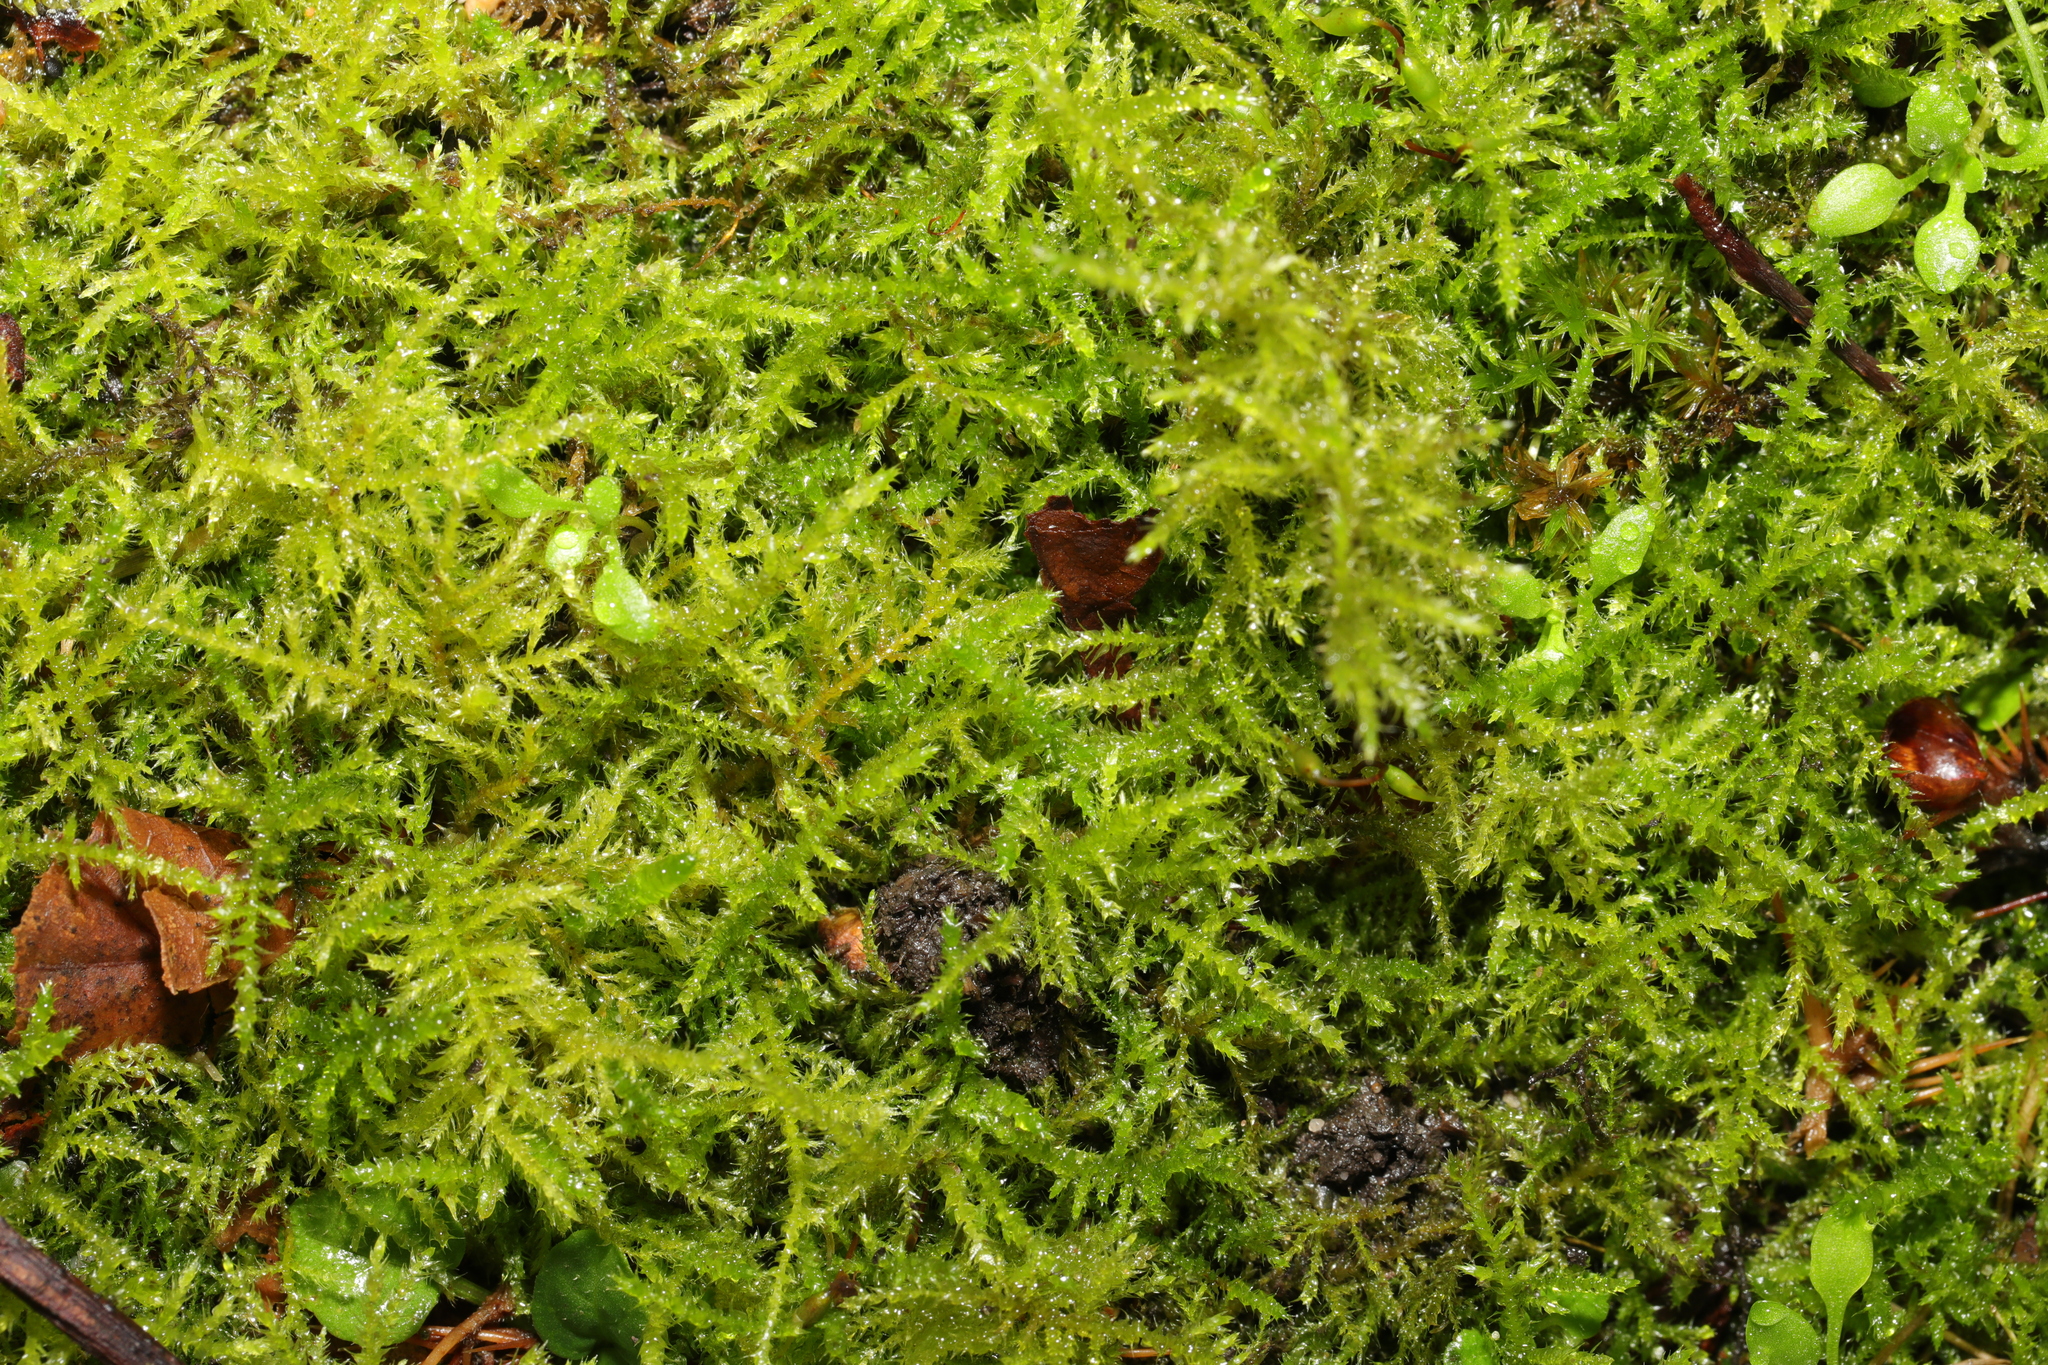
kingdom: Plantae
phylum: Bryophyta
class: Bryopsida
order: Hypnales
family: Brachytheciaceae
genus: Kindbergia
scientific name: Kindbergia praelonga
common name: Slender beaked moss
